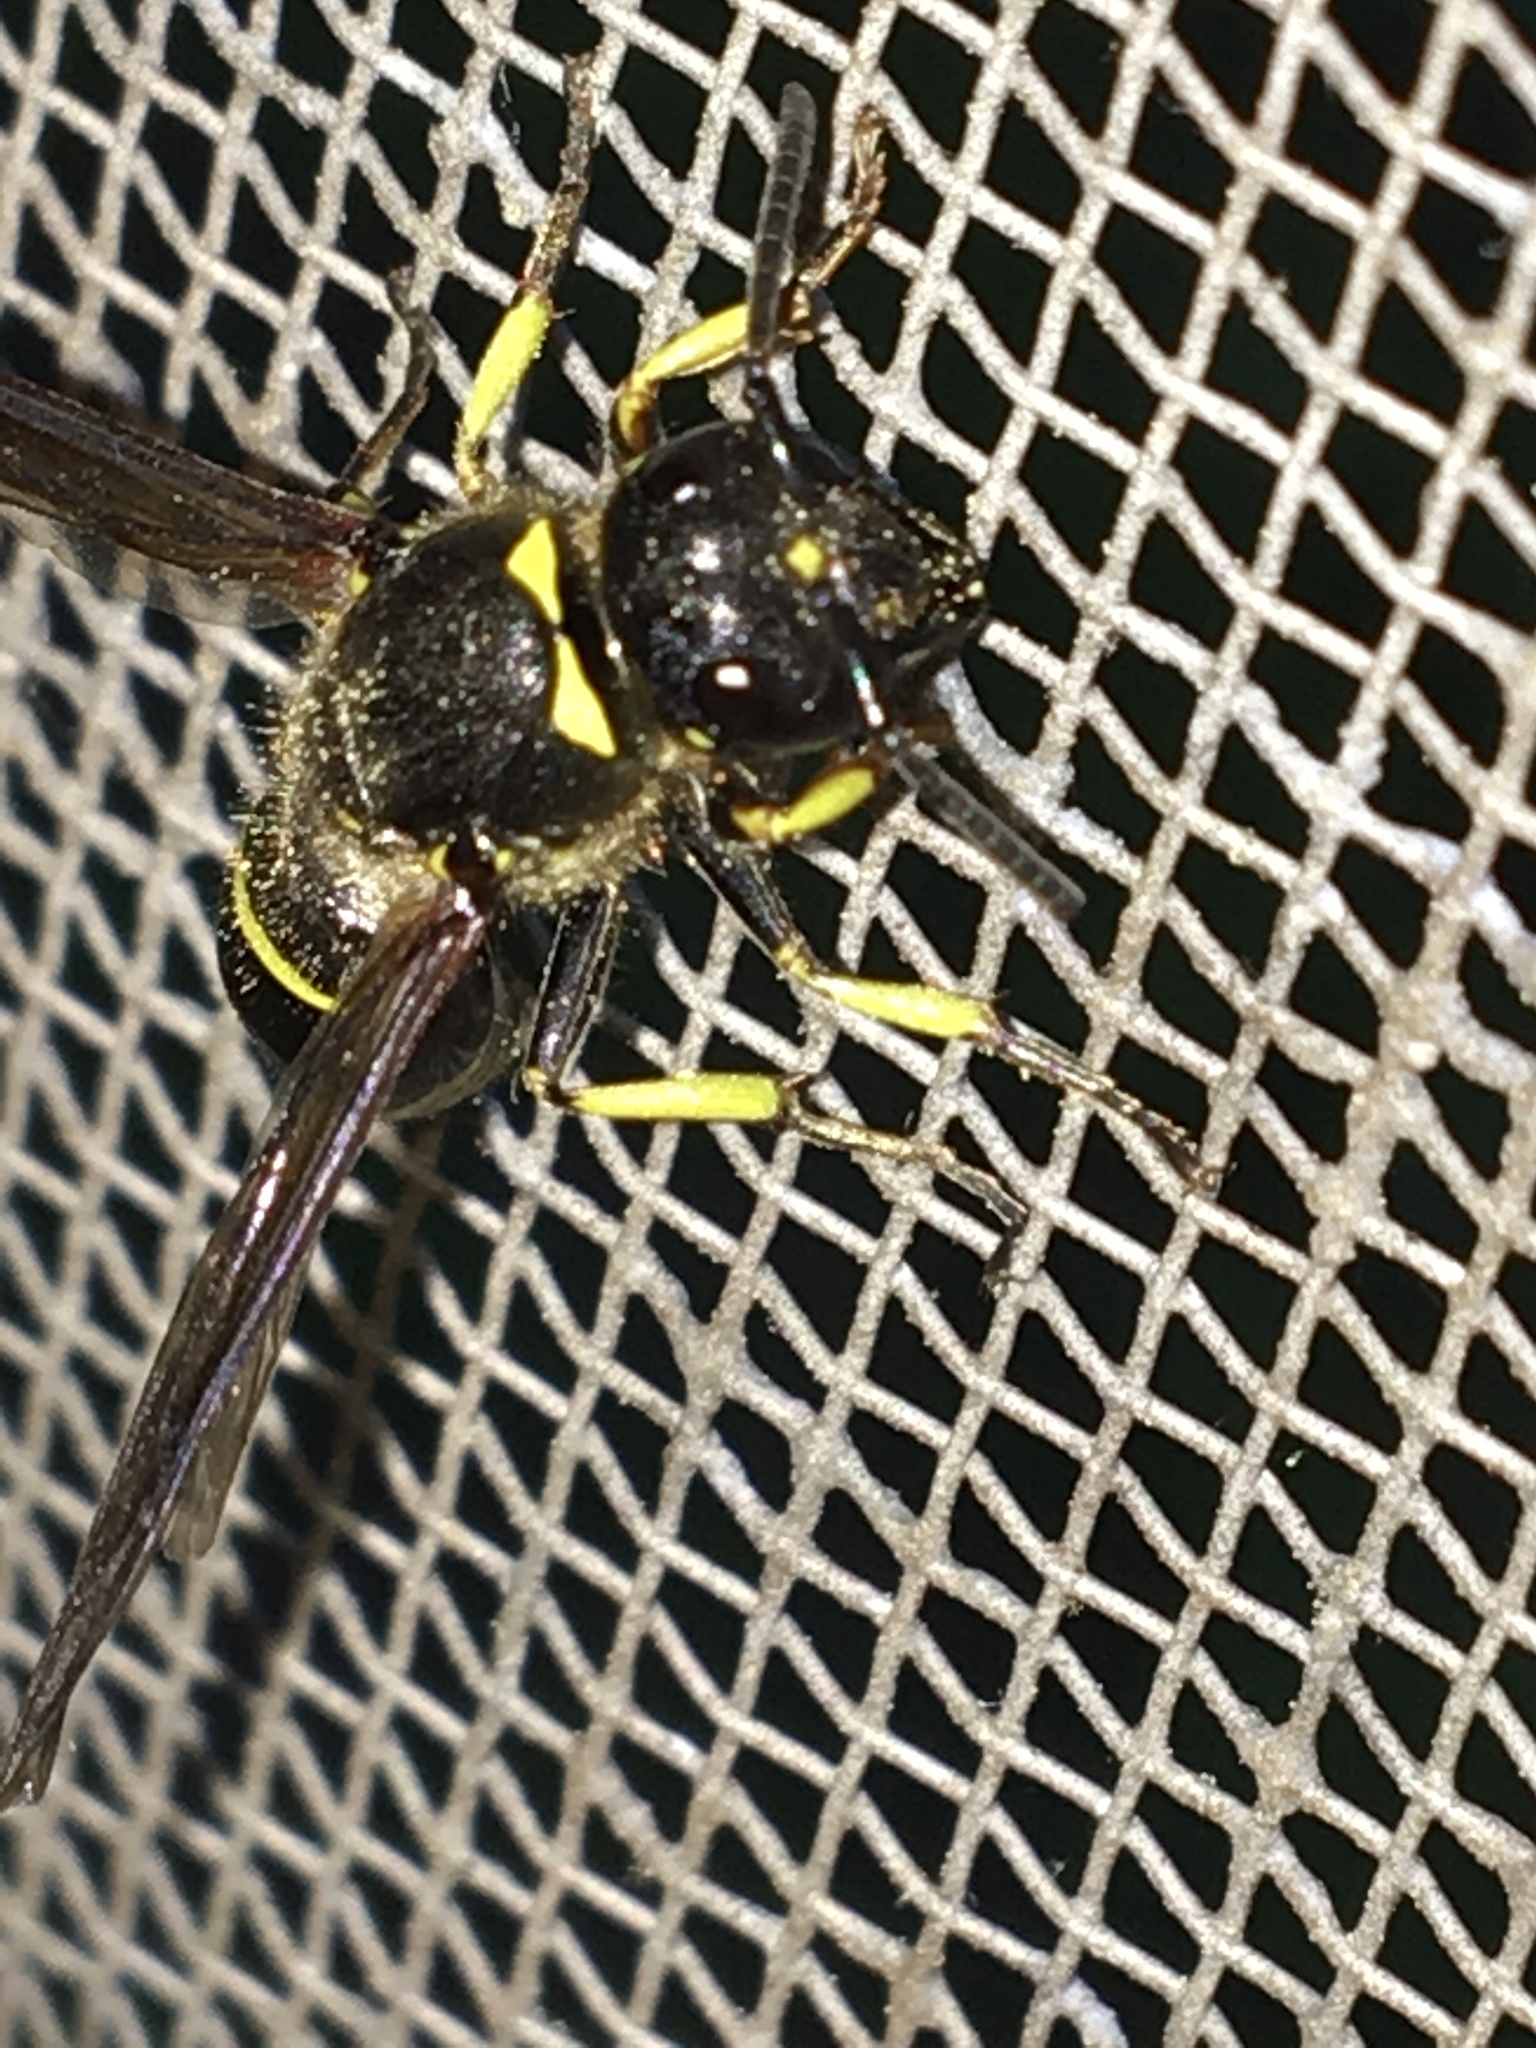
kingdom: Animalia
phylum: Arthropoda
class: Insecta
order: Hymenoptera
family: Vespidae
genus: Ancistrocerus
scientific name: Ancistrocerus
